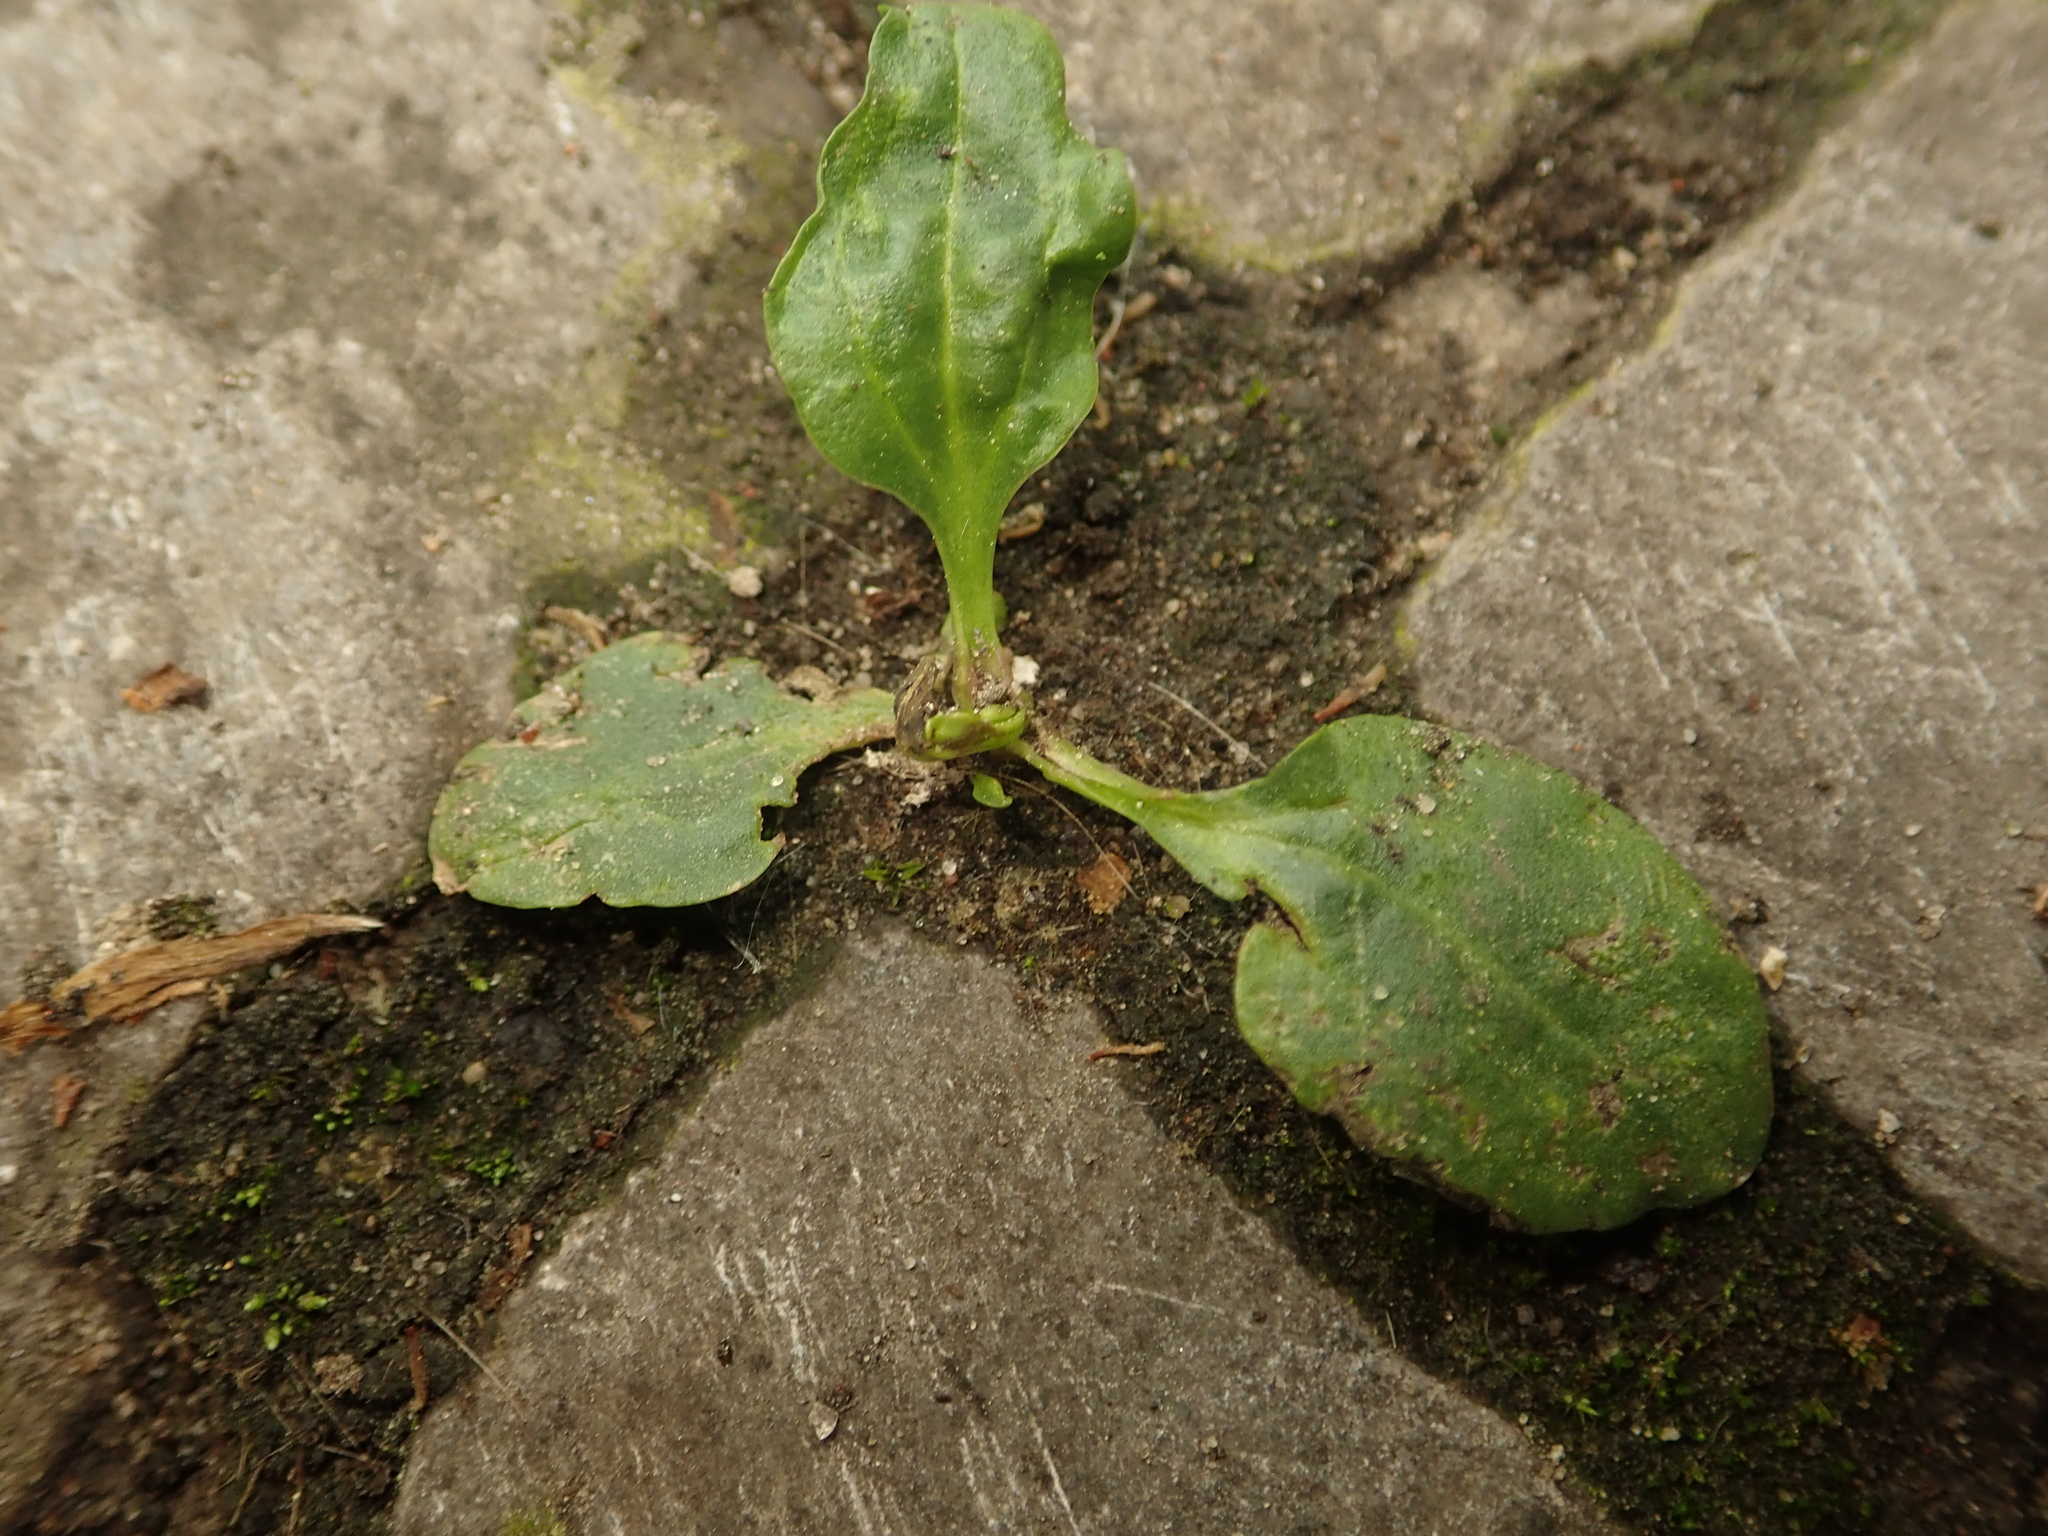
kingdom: Plantae
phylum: Tracheophyta
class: Magnoliopsida
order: Lamiales
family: Plantaginaceae
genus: Plantago
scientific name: Plantago major
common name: Common plantain
